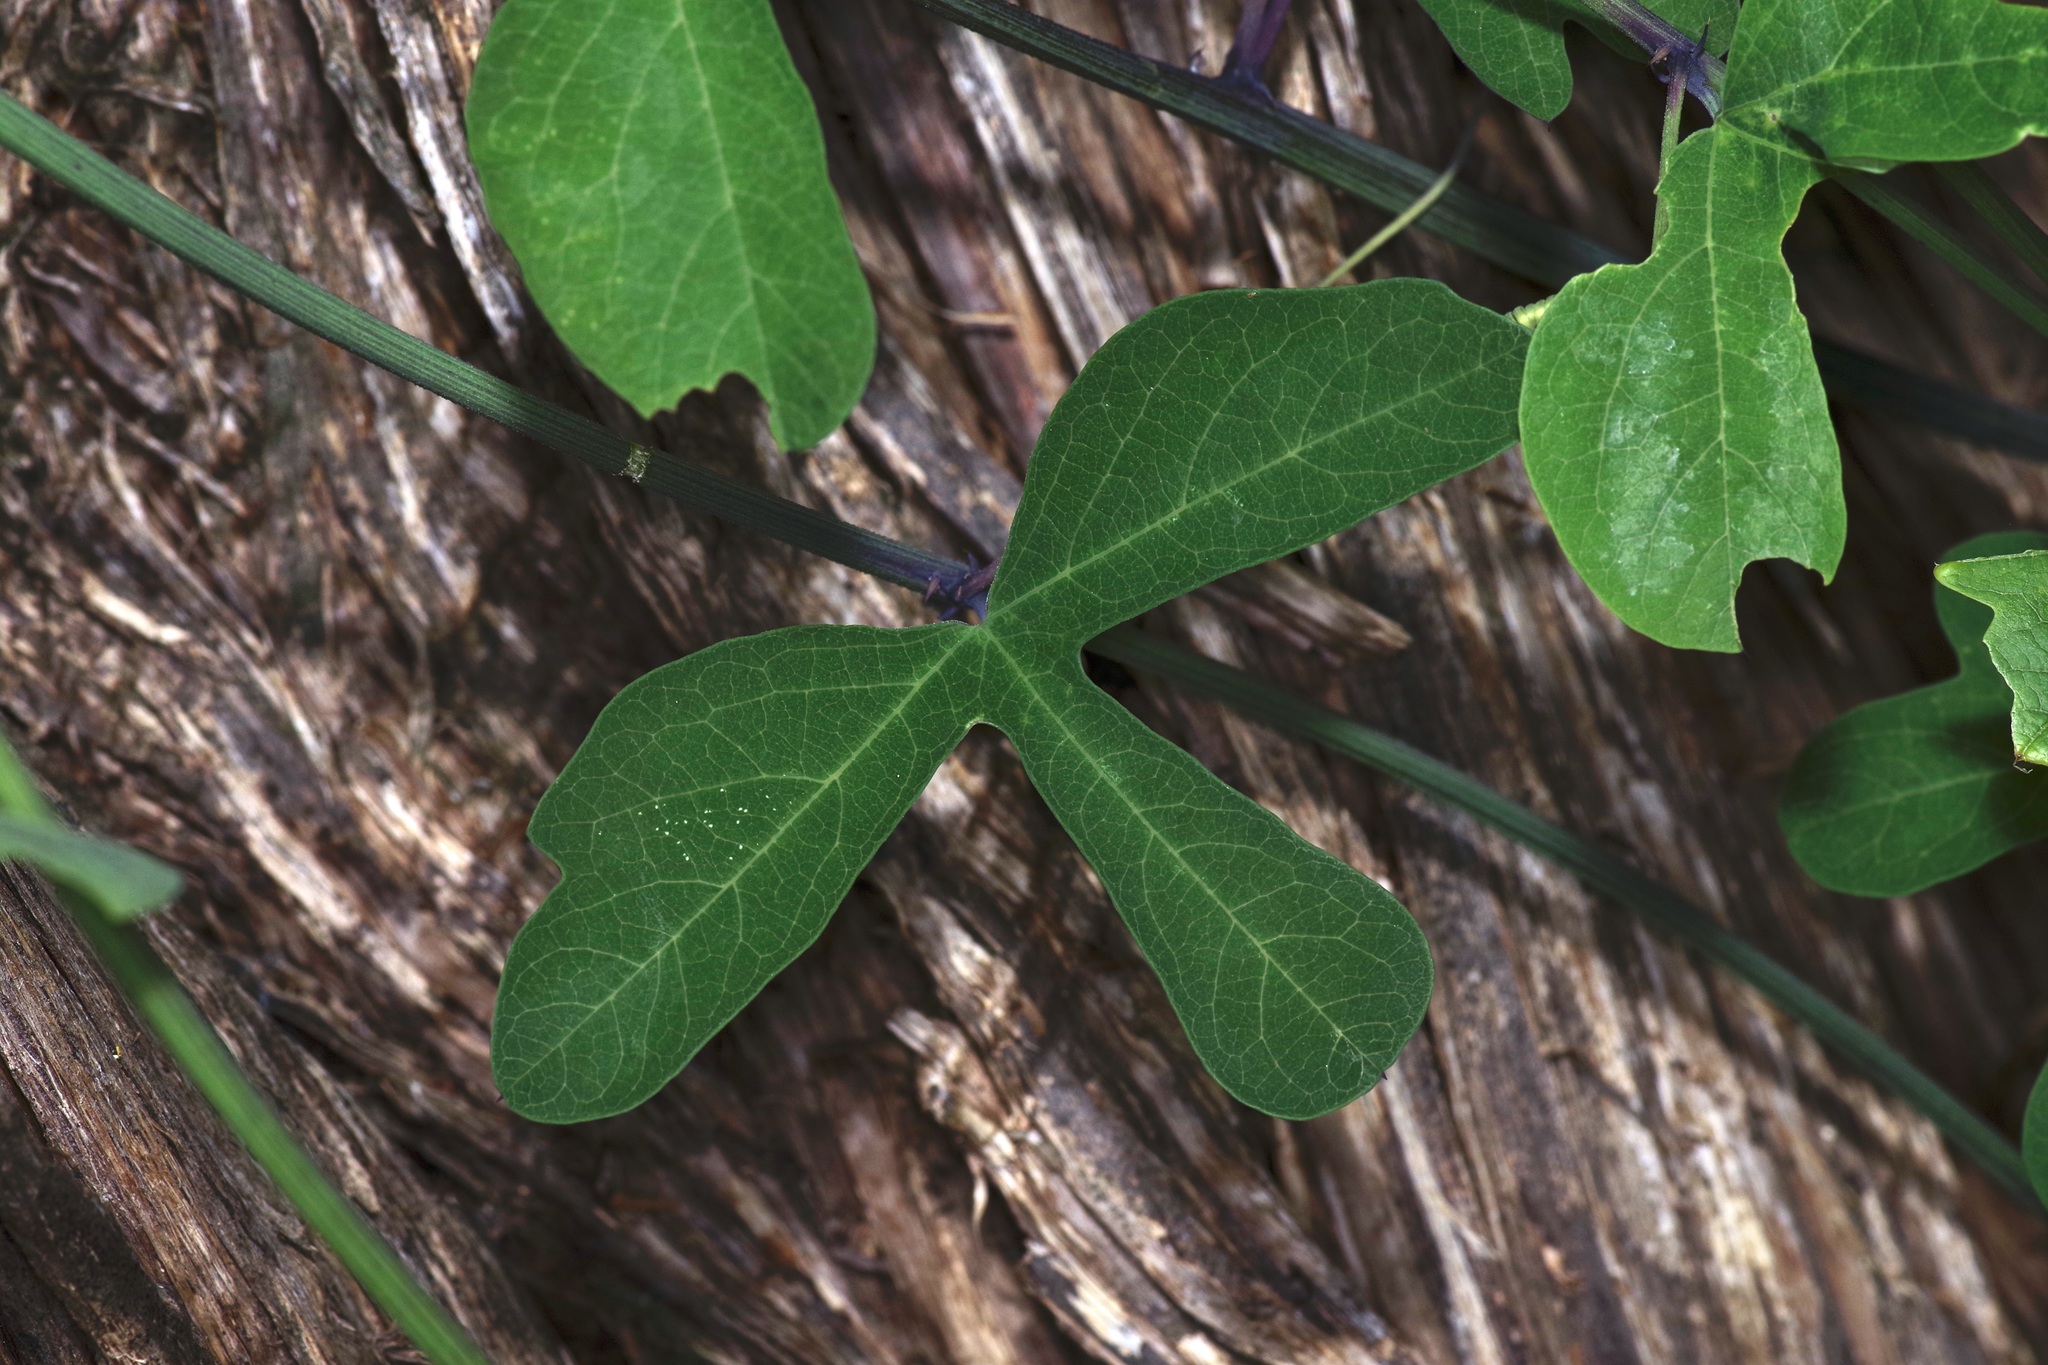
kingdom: Animalia
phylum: Arthropoda
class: Insecta
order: Lepidoptera
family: Nymphalidae
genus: Dione
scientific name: Dione vanillae
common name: Gulf fritillary
